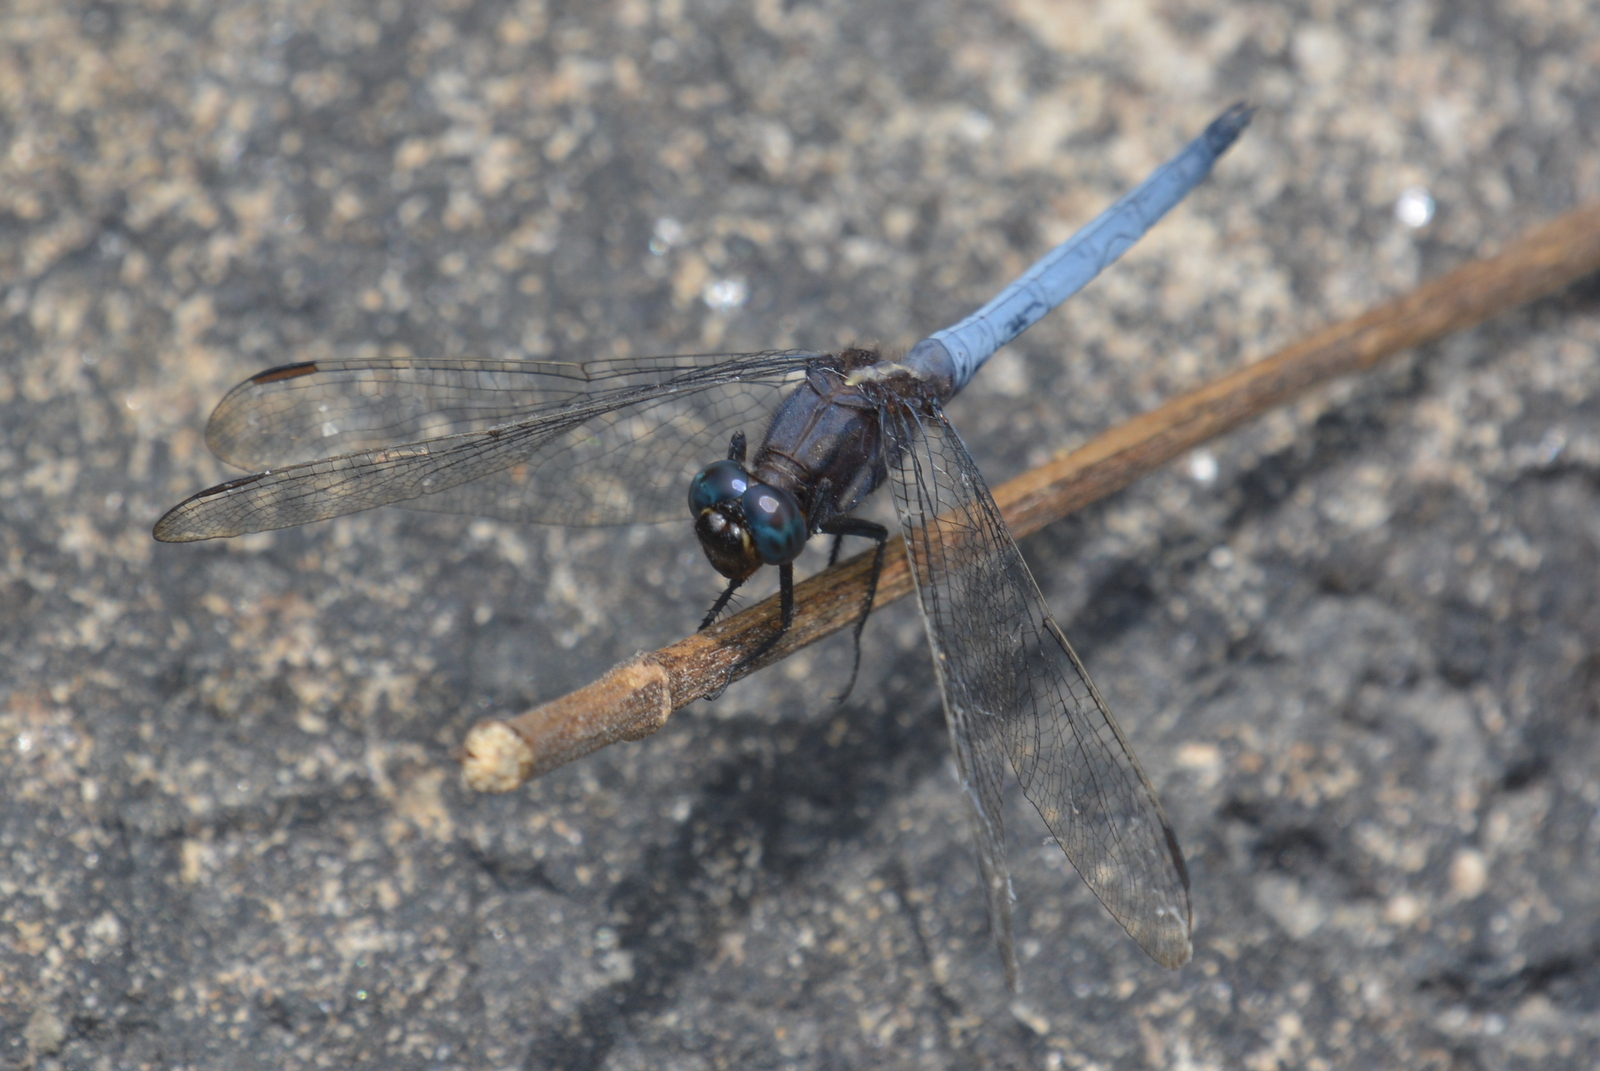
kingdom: Animalia
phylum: Arthropoda
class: Insecta
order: Odonata
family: Libellulidae
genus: Orthetrum
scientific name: Orthetrum glaucum
